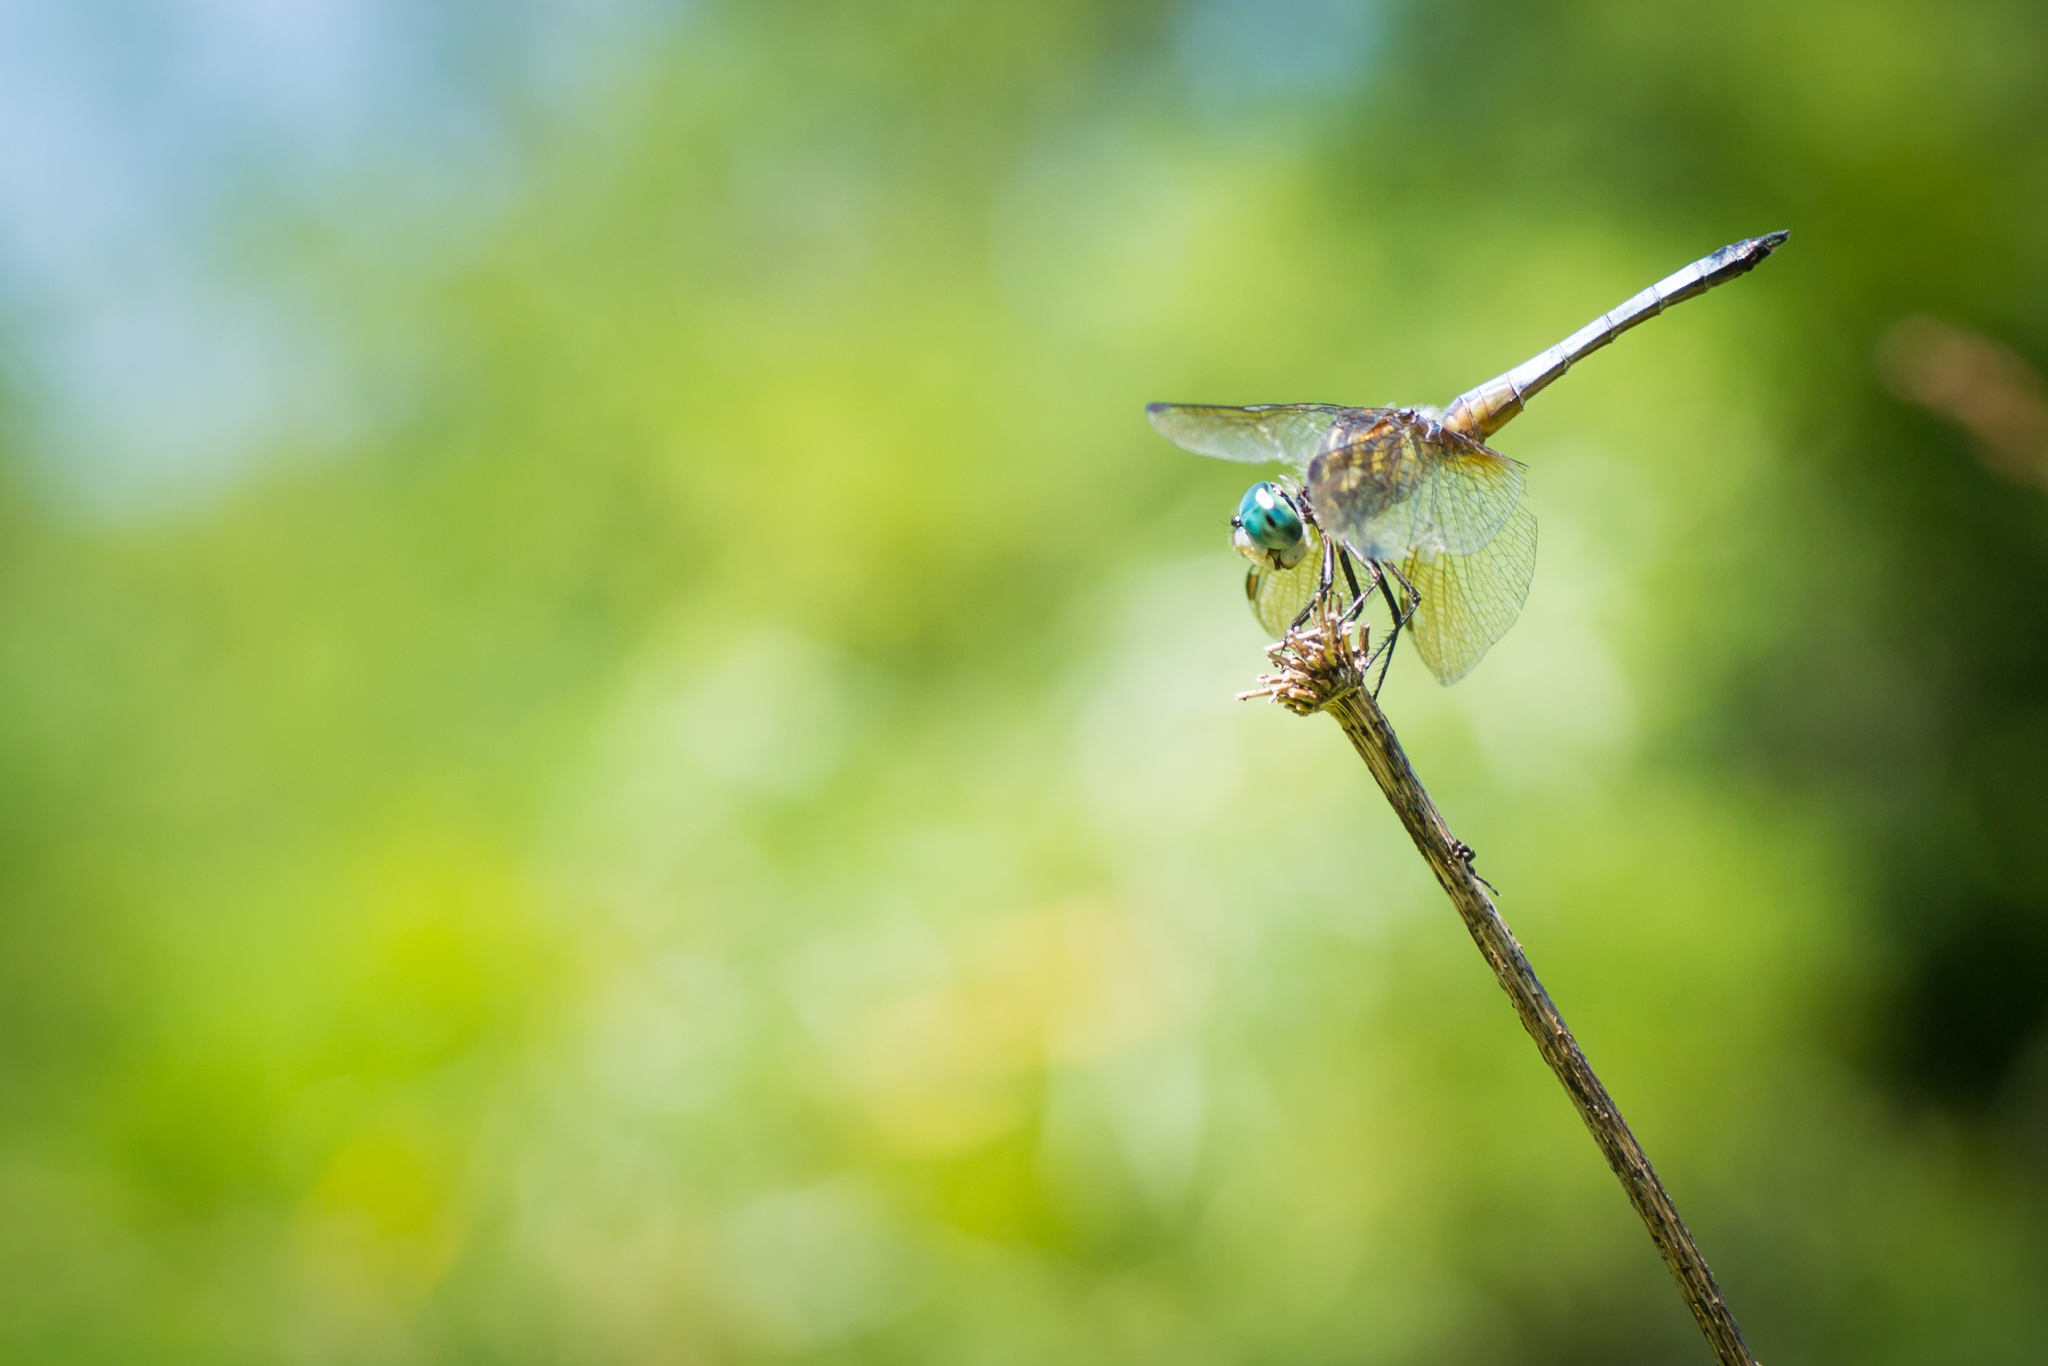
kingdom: Animalia
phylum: Arthropoda
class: Insecta
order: Odonata
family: Libellulidae
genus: Pachydiplax
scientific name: Pachydiplax longipennis
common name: Blue dasher
